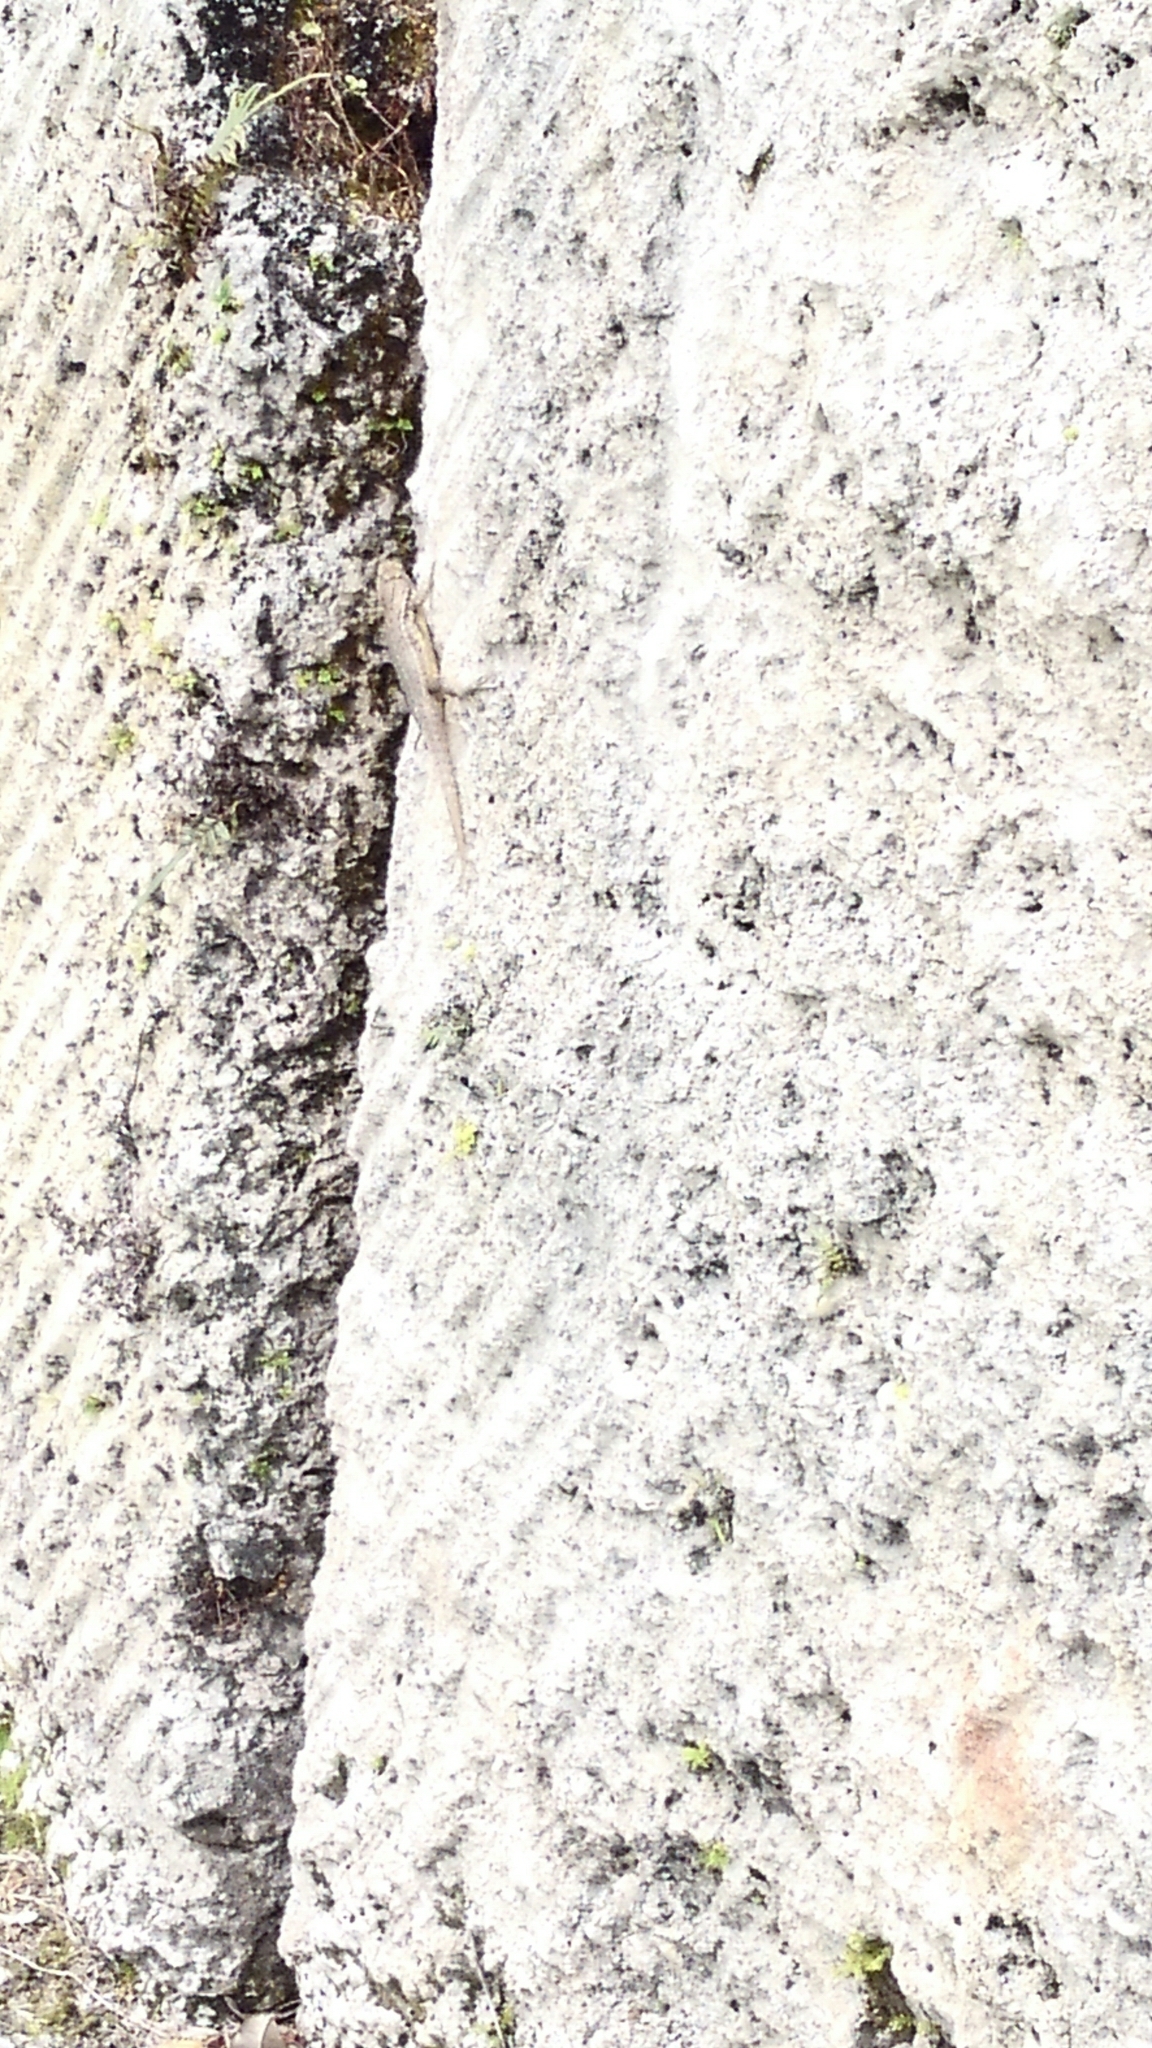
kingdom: Animalia
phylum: Chordata
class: Squamata
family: Leiocephalidae
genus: Leiocephalus
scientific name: Leiocephalus carinatus
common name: Northern curly-tailed lizard
